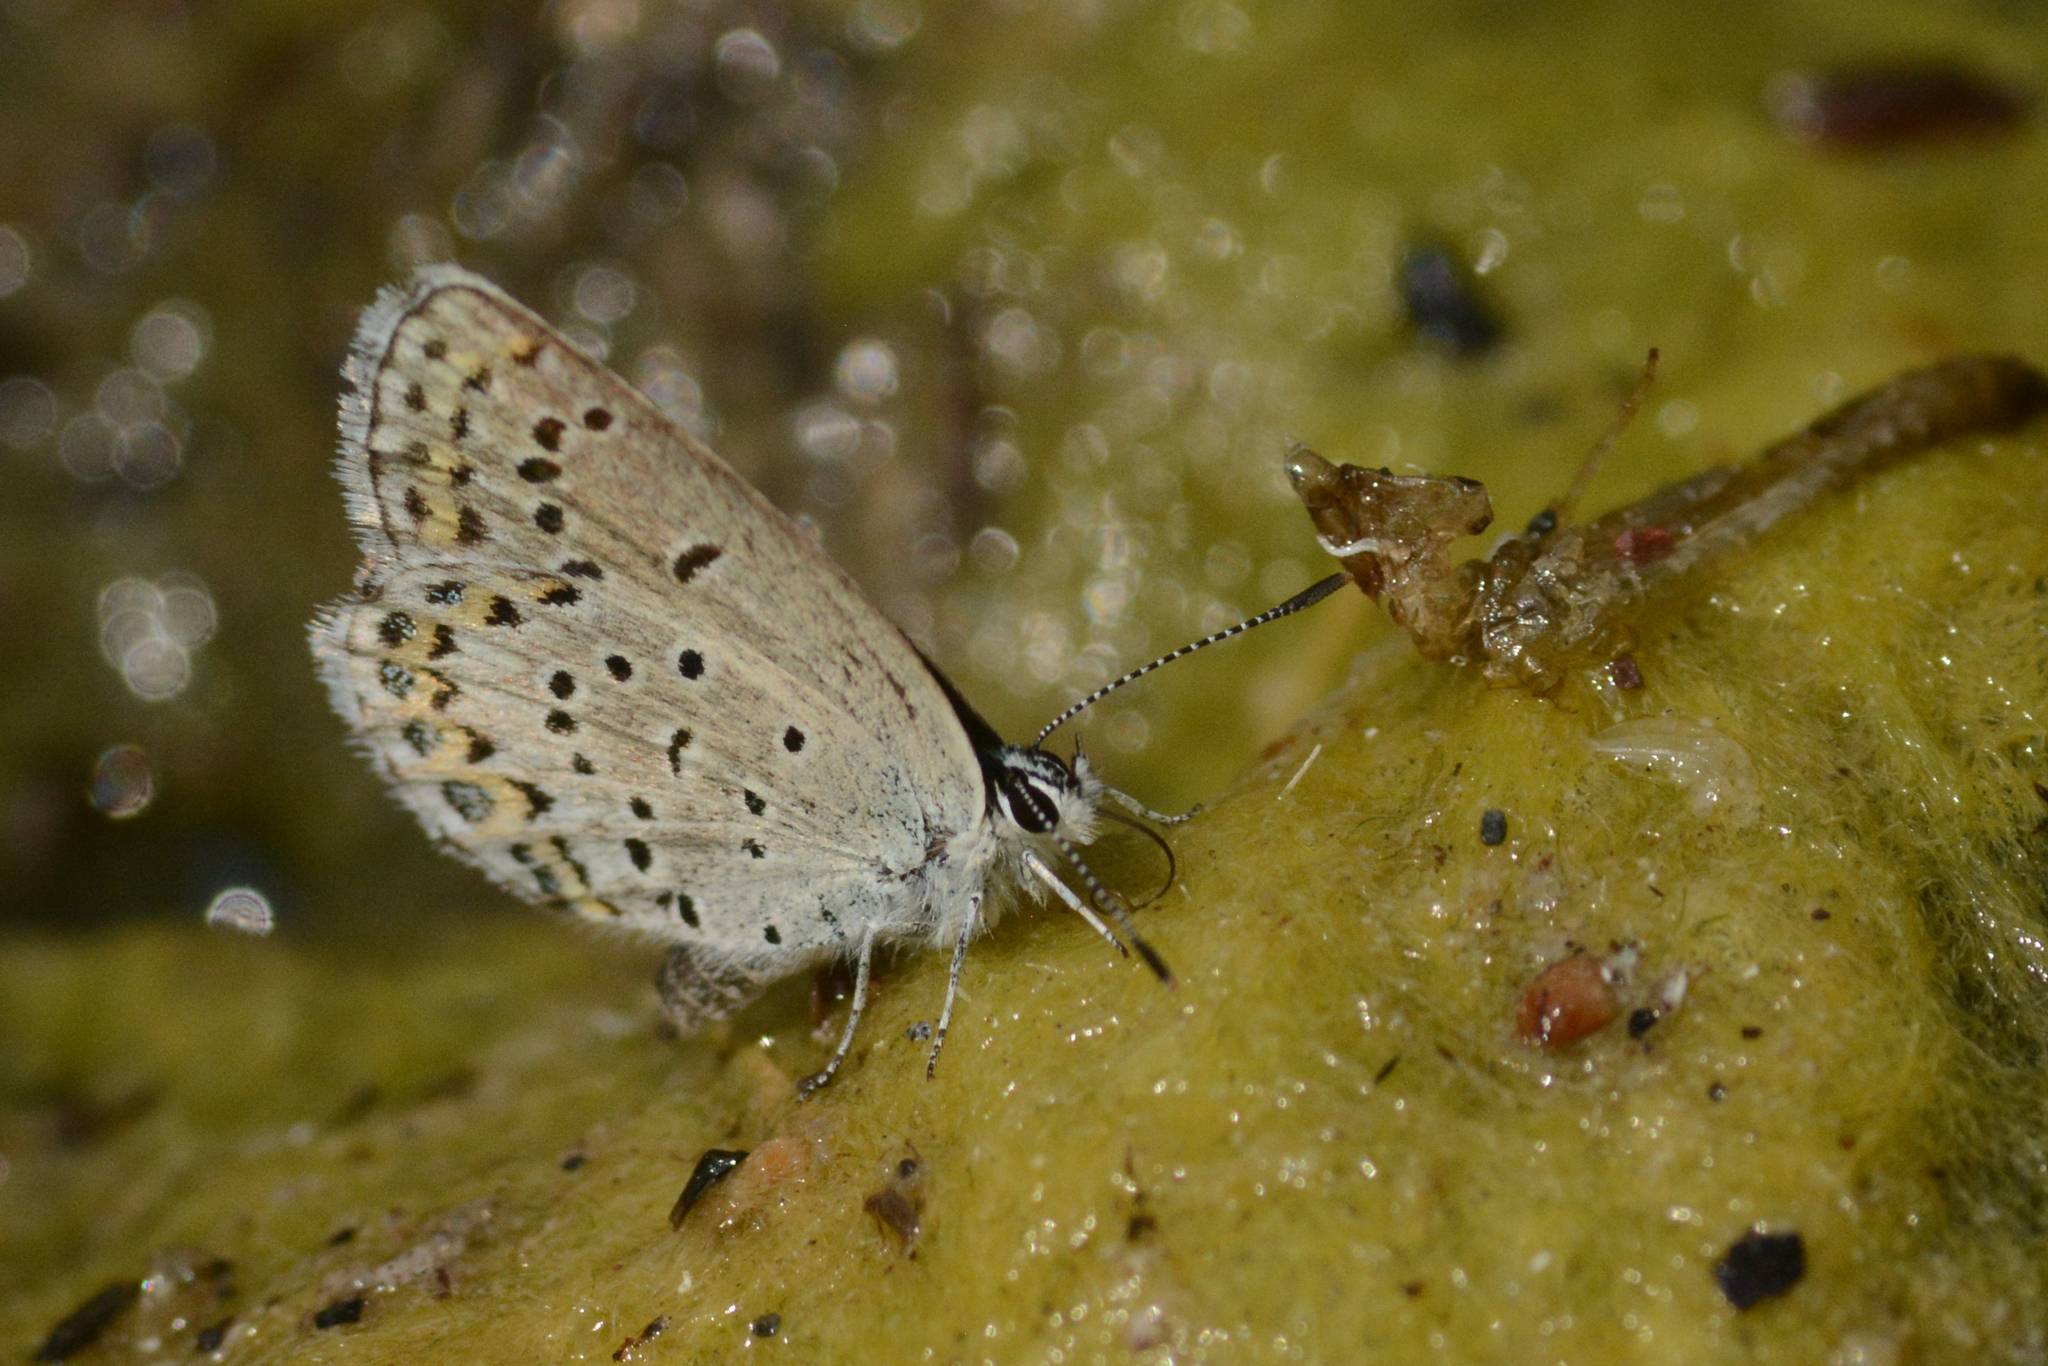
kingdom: Animalia
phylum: Arthropoda
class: Insecta
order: Lepidoptera
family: Lycaenidae
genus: Lycaeides
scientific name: Lycaeides idas
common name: Northern blue
